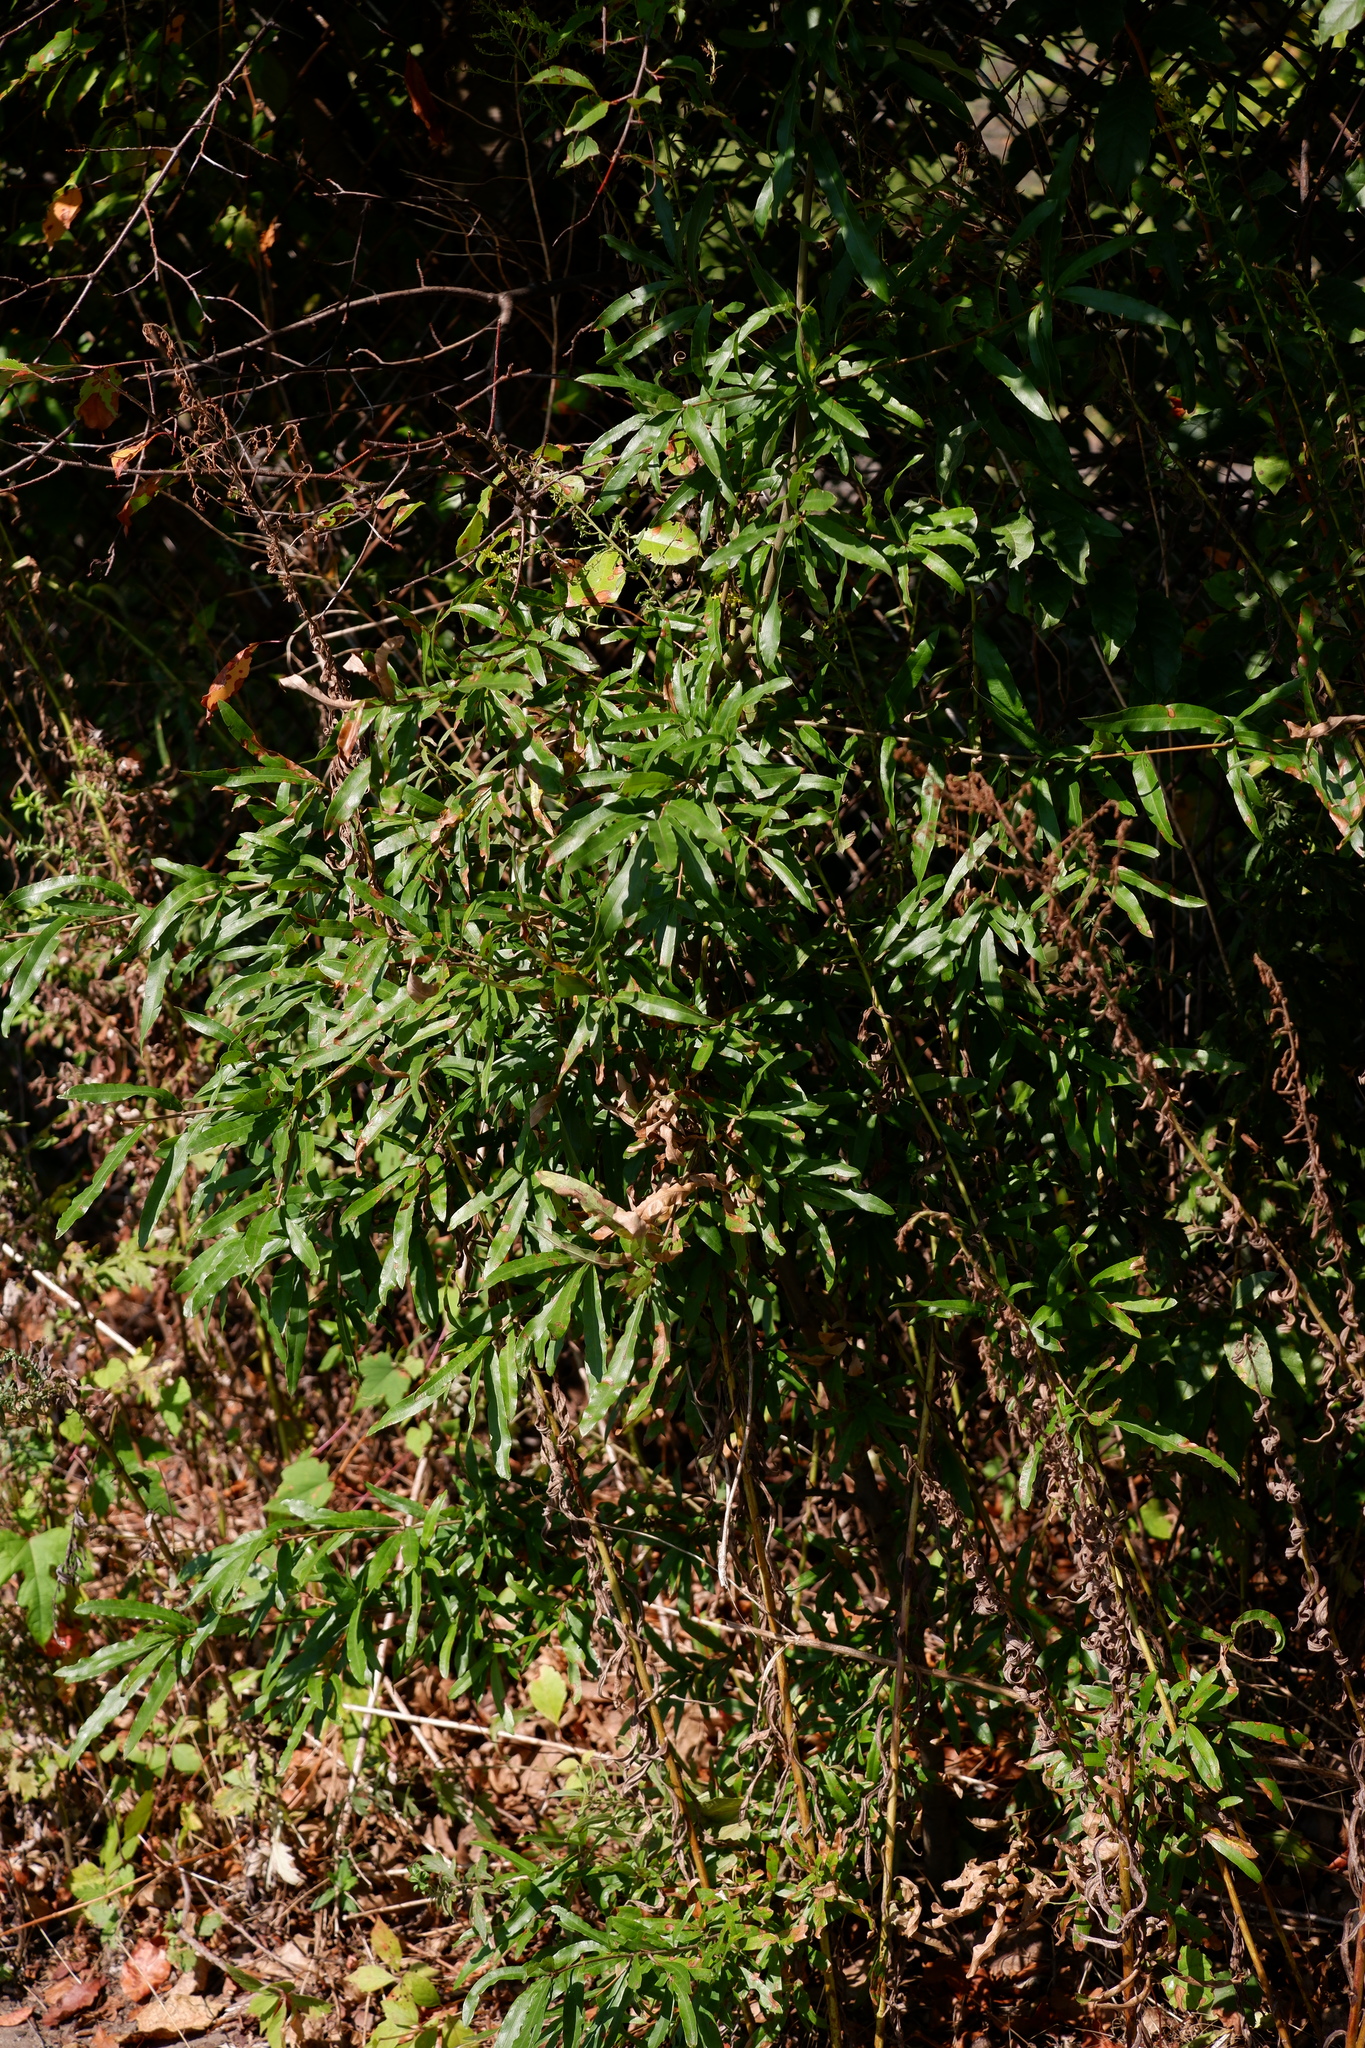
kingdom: Plantae
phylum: Tracheophyta
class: Magnoliopsida
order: Fagales
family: Fagaceae
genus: Quercus
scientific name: Quercus phellos
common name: Willow oak
